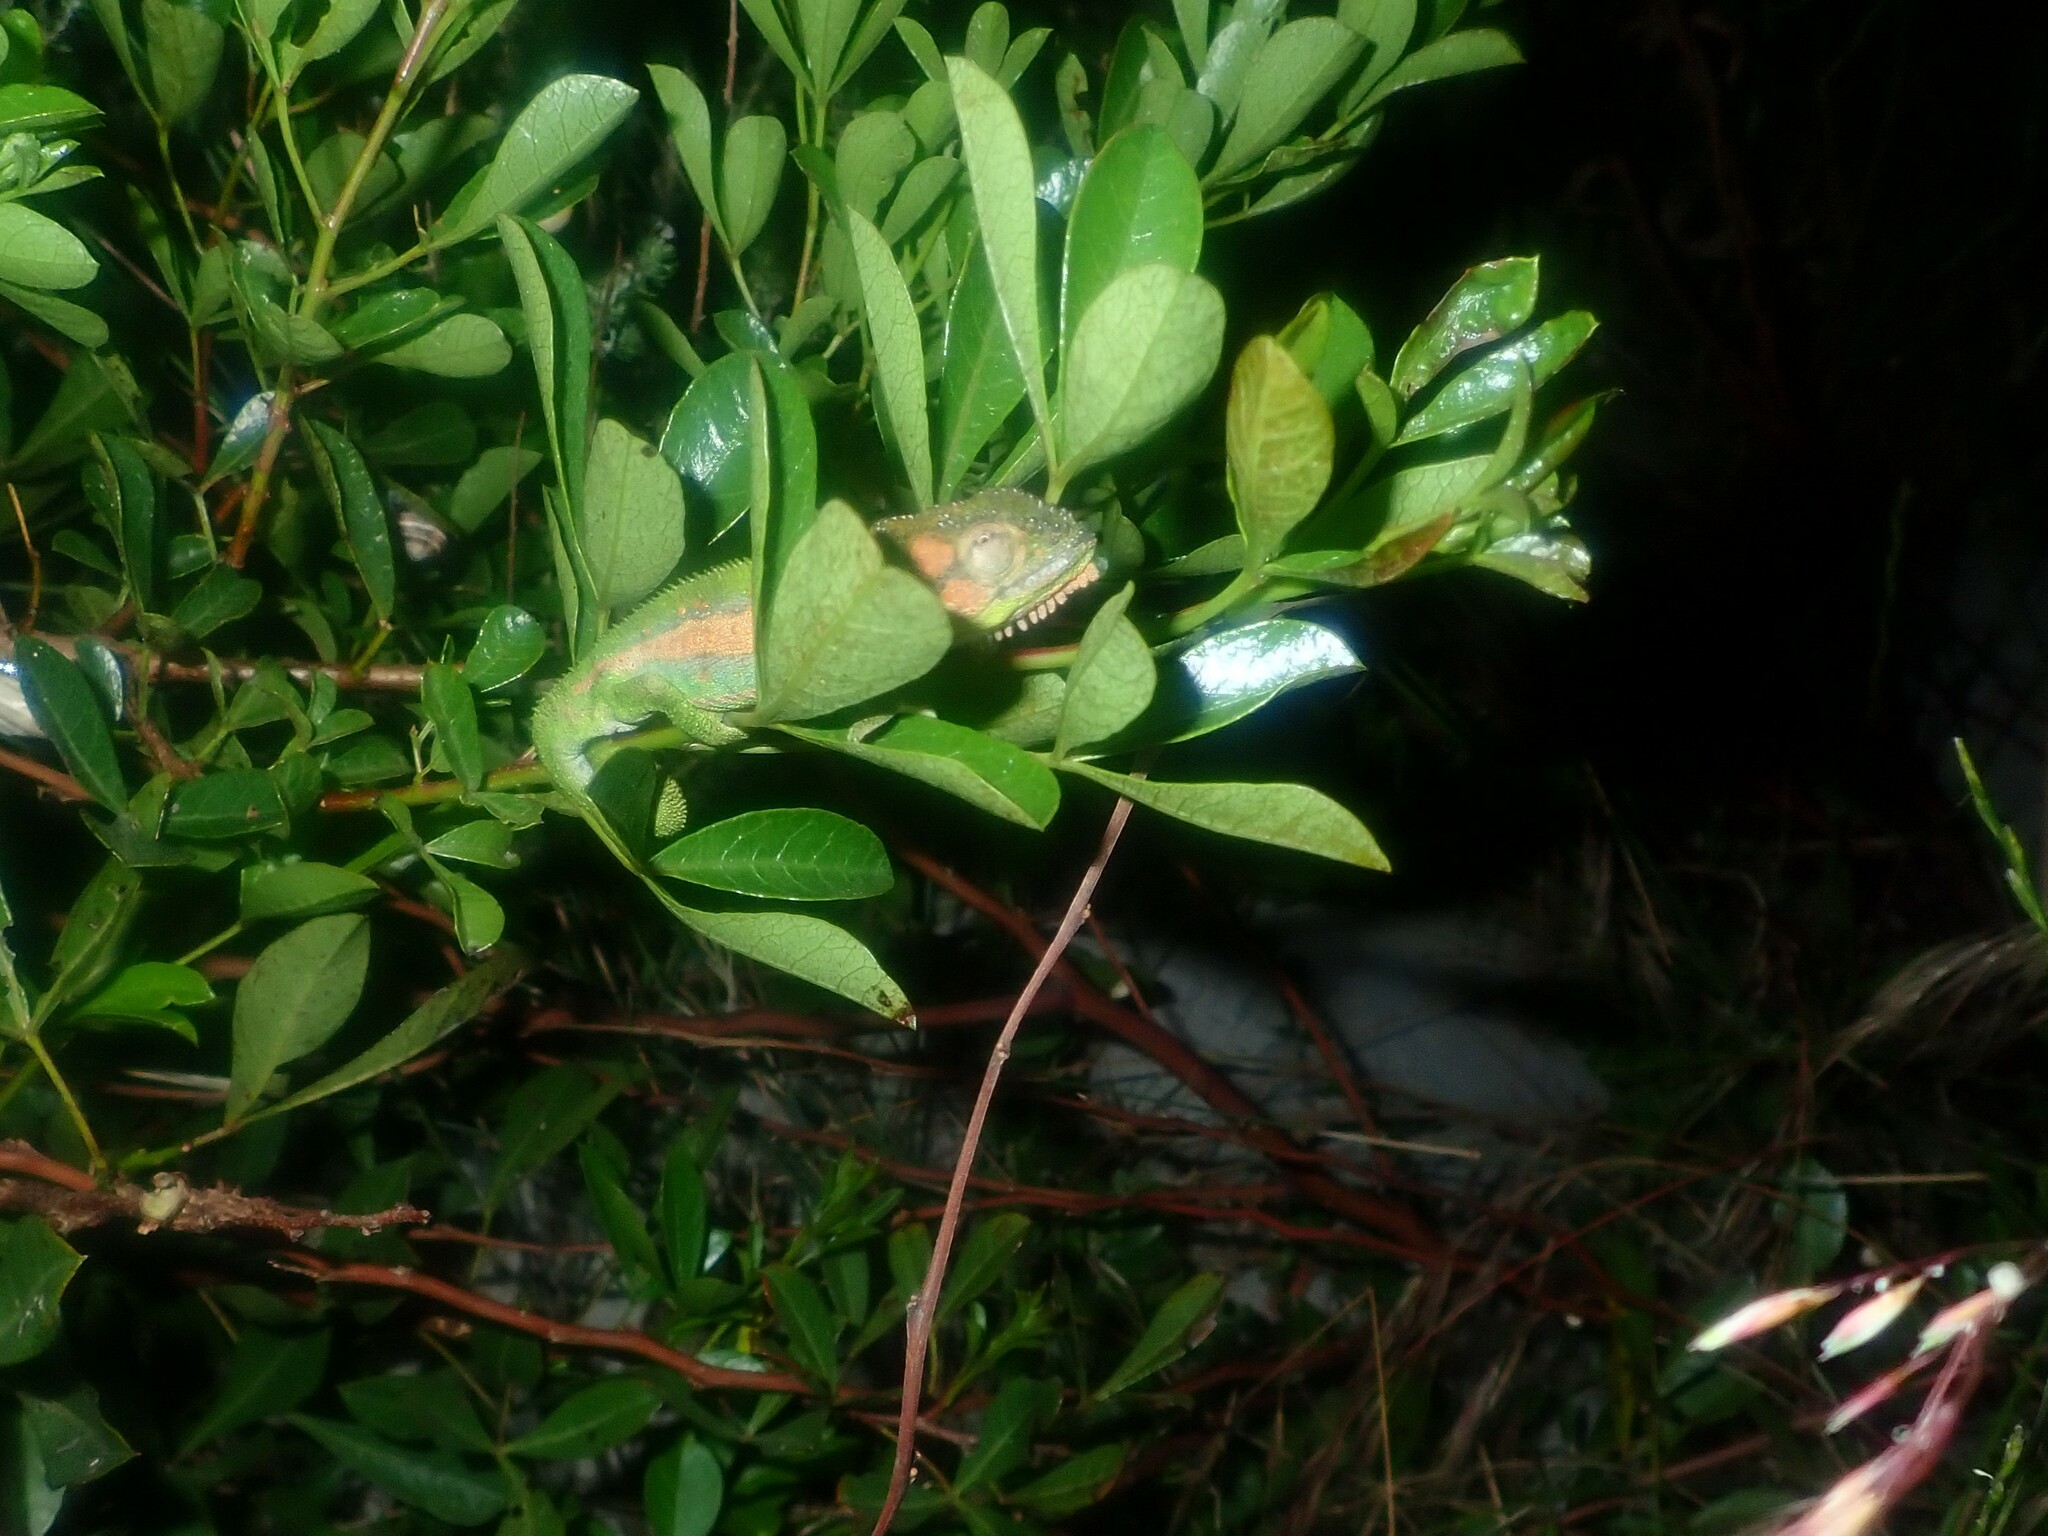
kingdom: Animalia
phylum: Chordata
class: Squamata
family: Chamaeleonidae
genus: Bradypodion
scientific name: Bradypodion pumilum
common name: Cape dwarf chameleon
